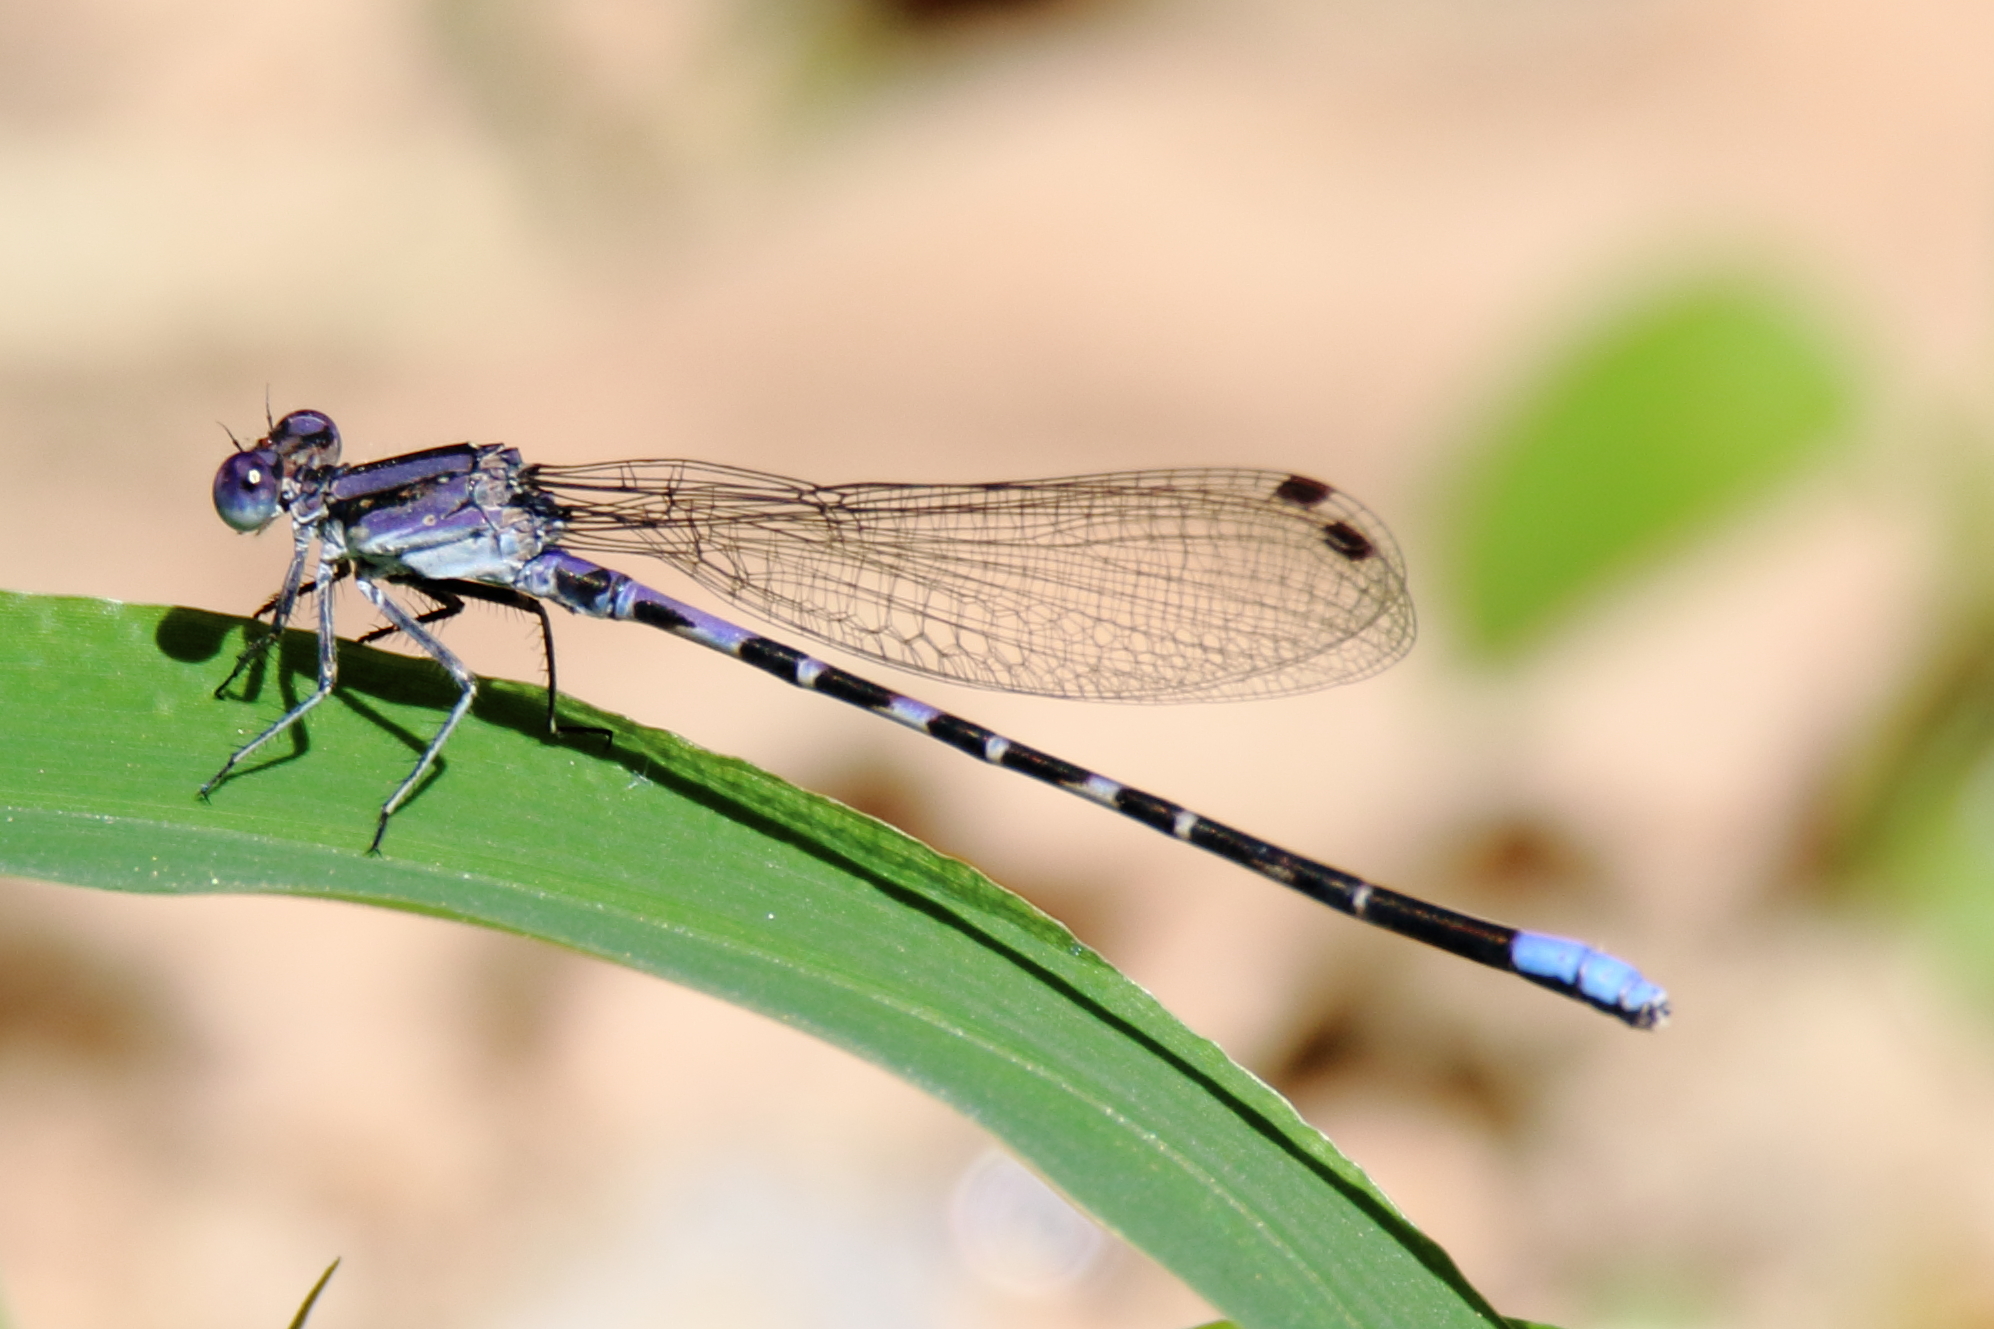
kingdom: Animalia
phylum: Arthropoda
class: Insecta
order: Odonata
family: Coenagrionidae
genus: Argia
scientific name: Argia immunda
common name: Kiowa dancer
